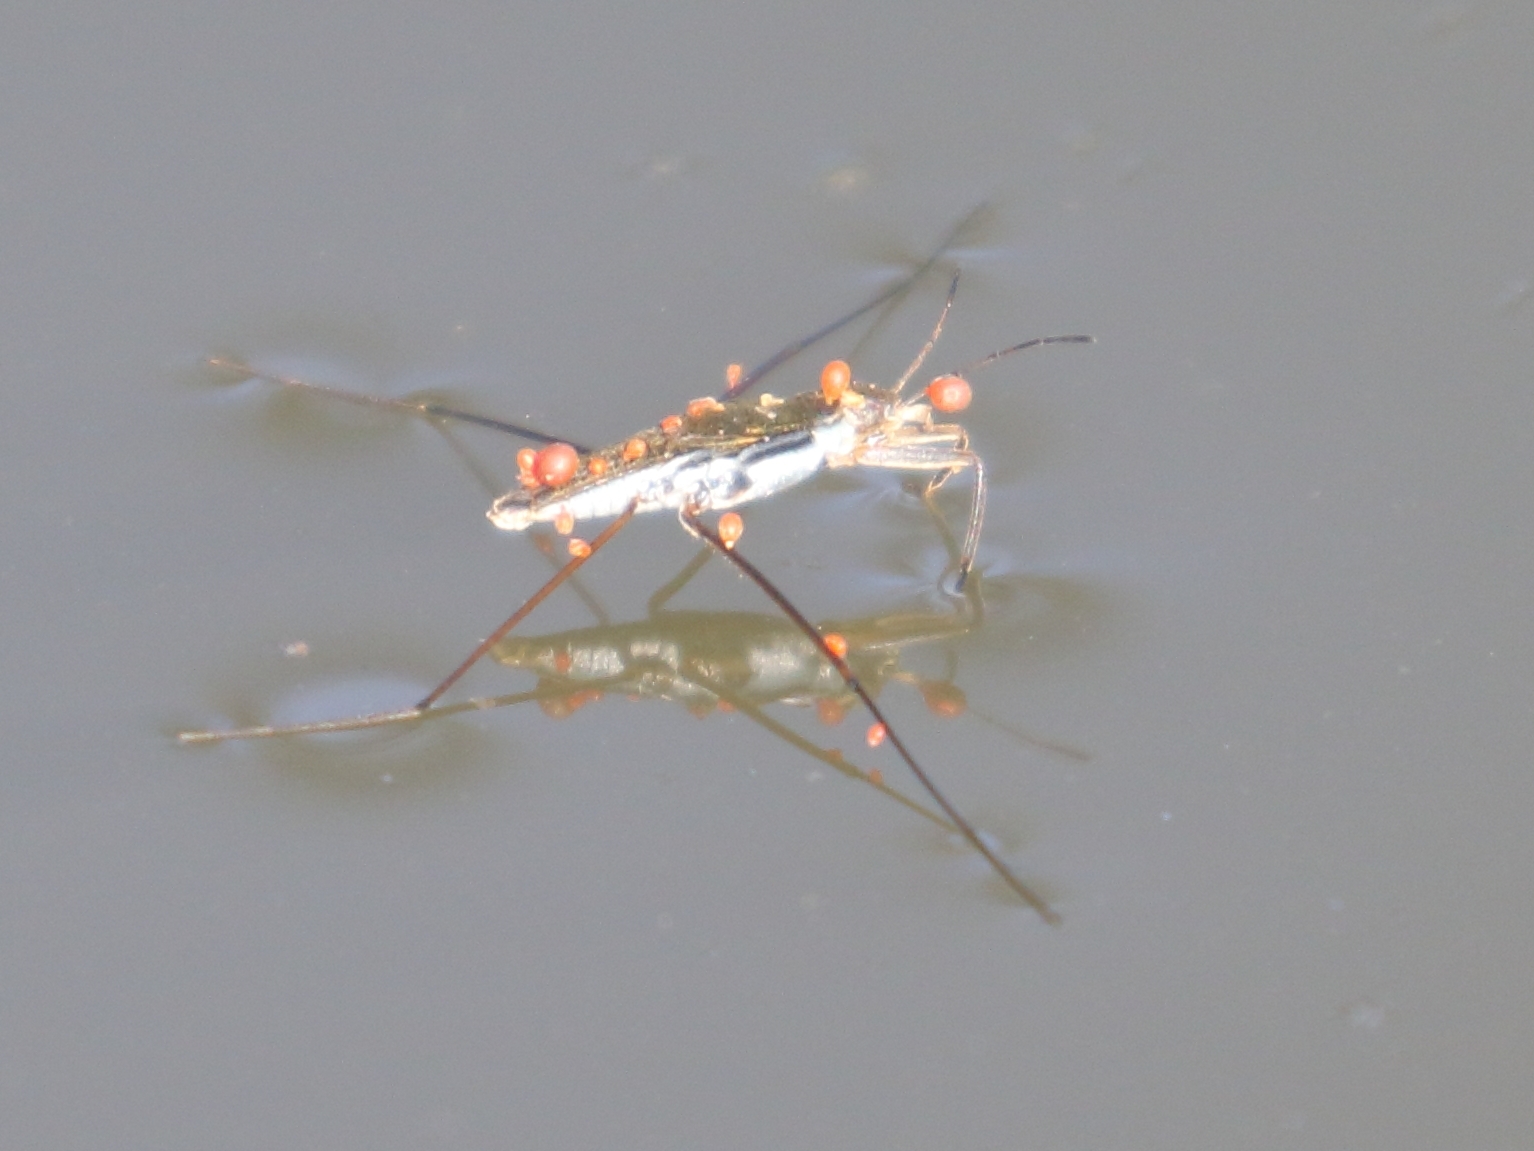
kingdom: Animalia
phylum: Arthropoda
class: Insecta
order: Hemiptera
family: Gerridae
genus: Gerris
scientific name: Gerris
